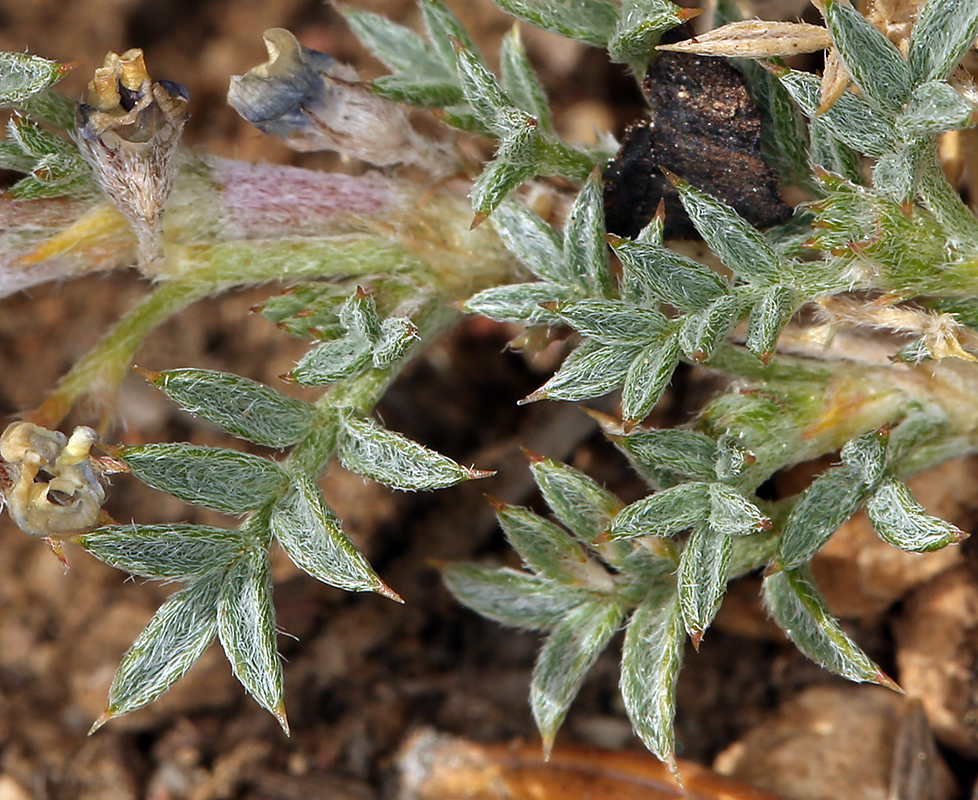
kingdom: Plantae
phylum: Tracheophyta
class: Magnoliopsida
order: Fabales
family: Fabaceae
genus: Astragalus
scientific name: Astragalus kentrophyta
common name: Prickly milk-vetch
